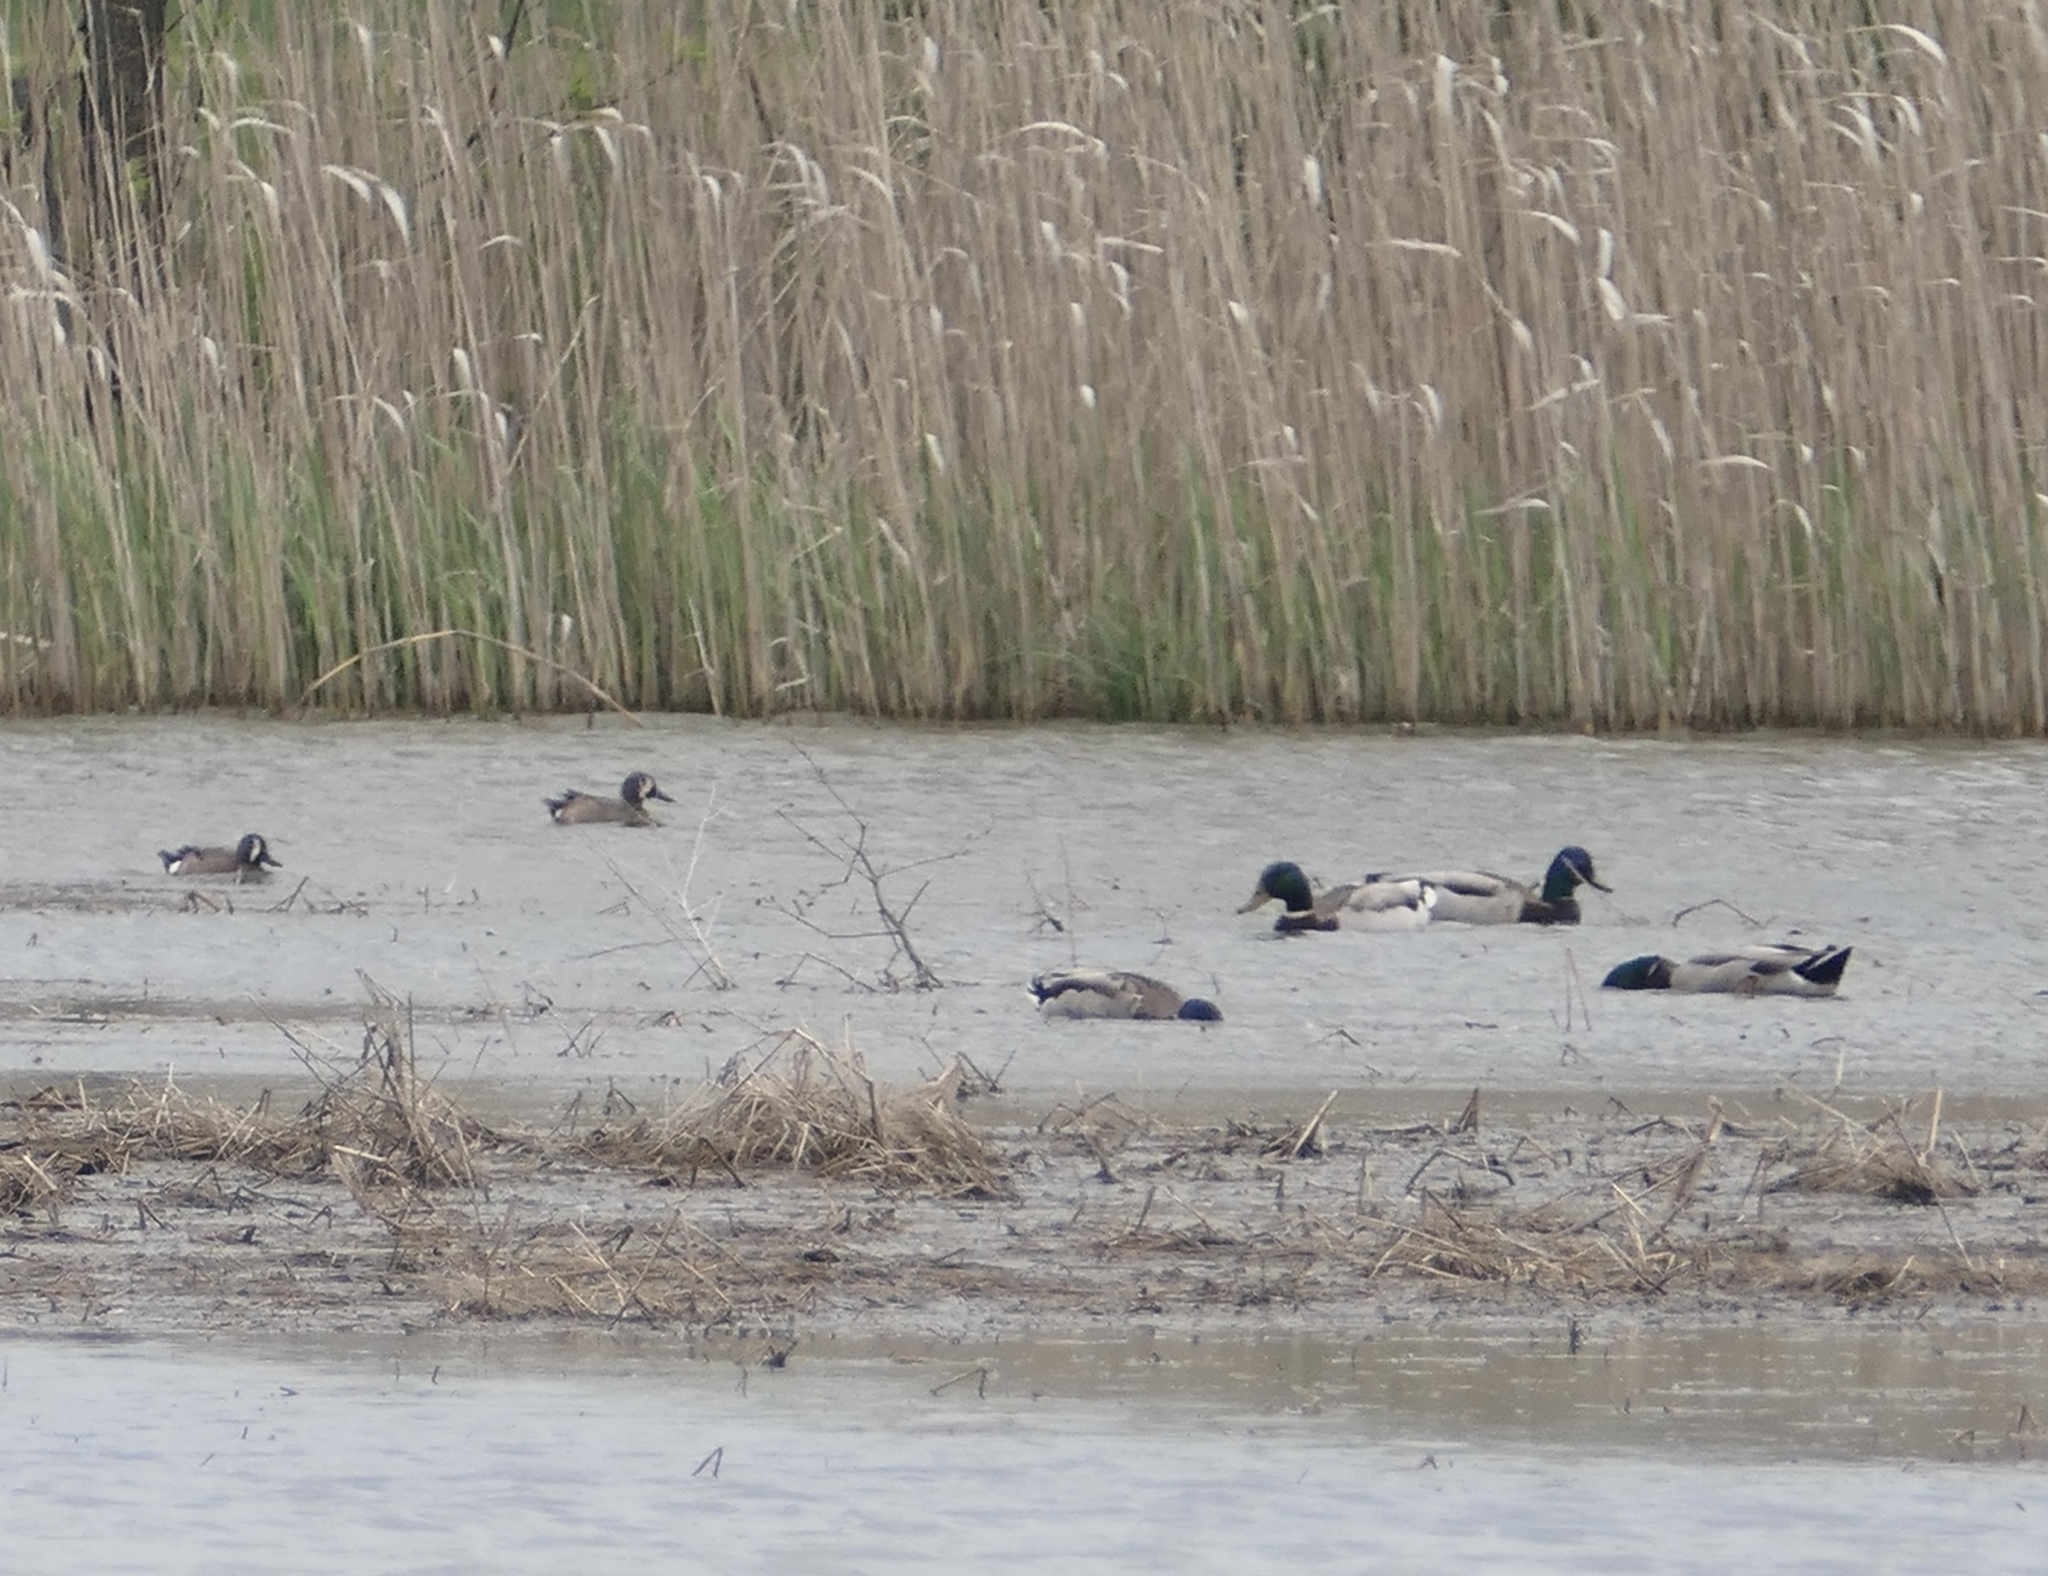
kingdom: Animalia
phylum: Chordata
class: Aves
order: Anseriformes
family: Anatidae
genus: Anas
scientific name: Anas platyrhynchos
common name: Mallard
